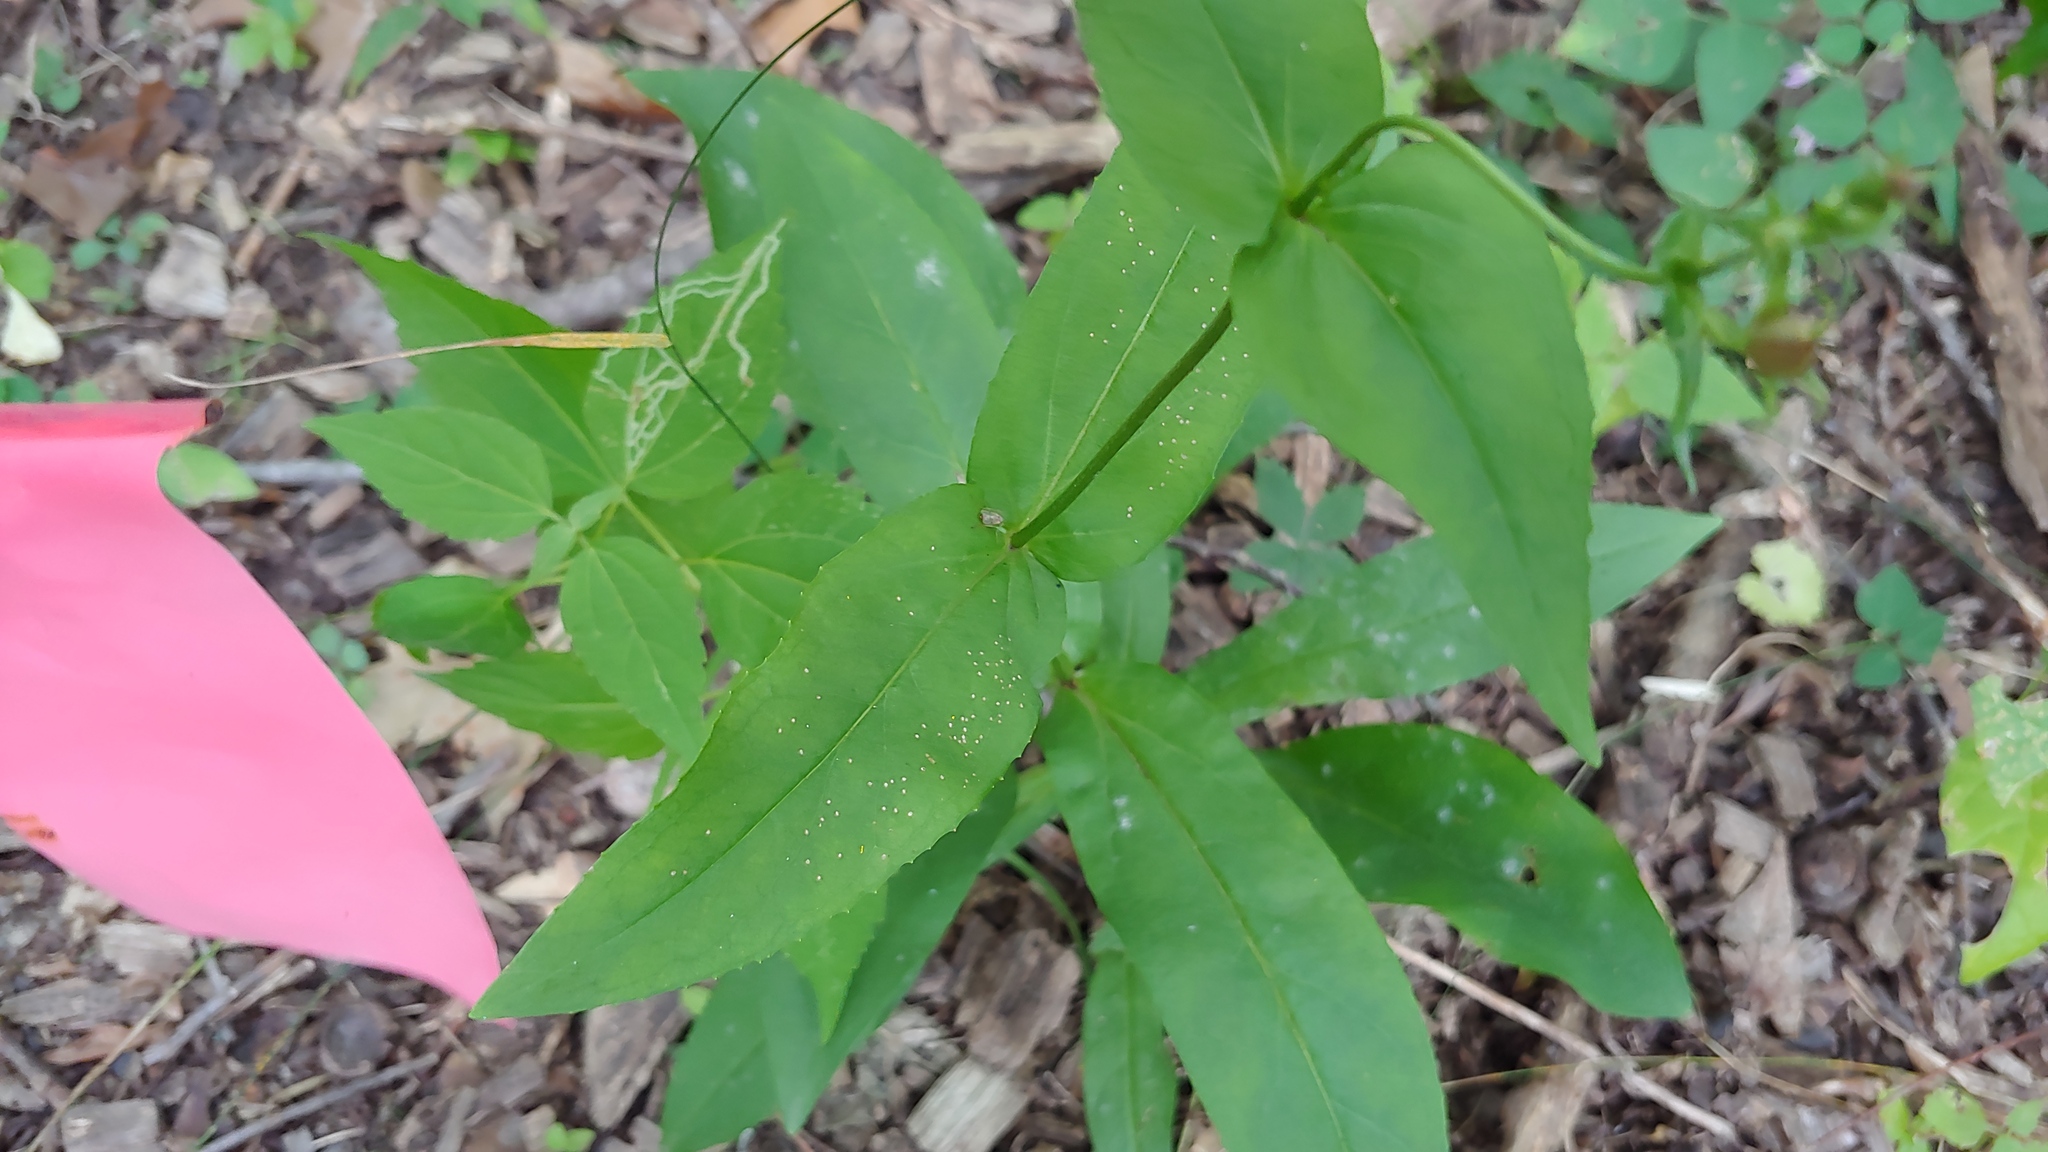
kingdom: Plantae
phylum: Tracheophyta
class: Magnoliopsida
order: Lamiales
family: Plantaginaceae
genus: Penstemon
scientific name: Penstemon digitalis
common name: Foxglove beardtongue
